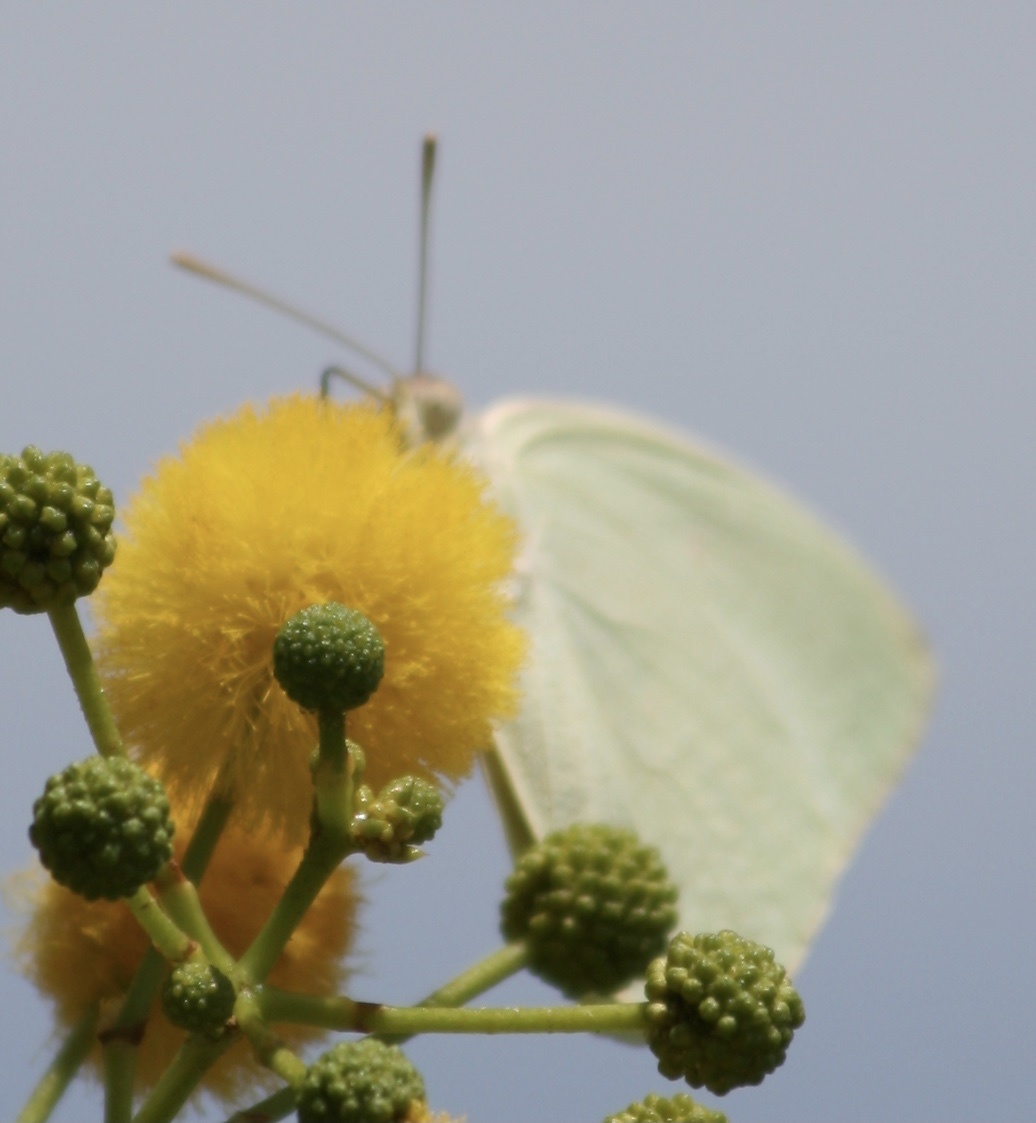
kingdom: Animalia
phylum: Arthropoda
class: Insecta
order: Lepidoptera
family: Pieridae
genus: Catopsilia
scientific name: Catopsilia florella
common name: African migrant
